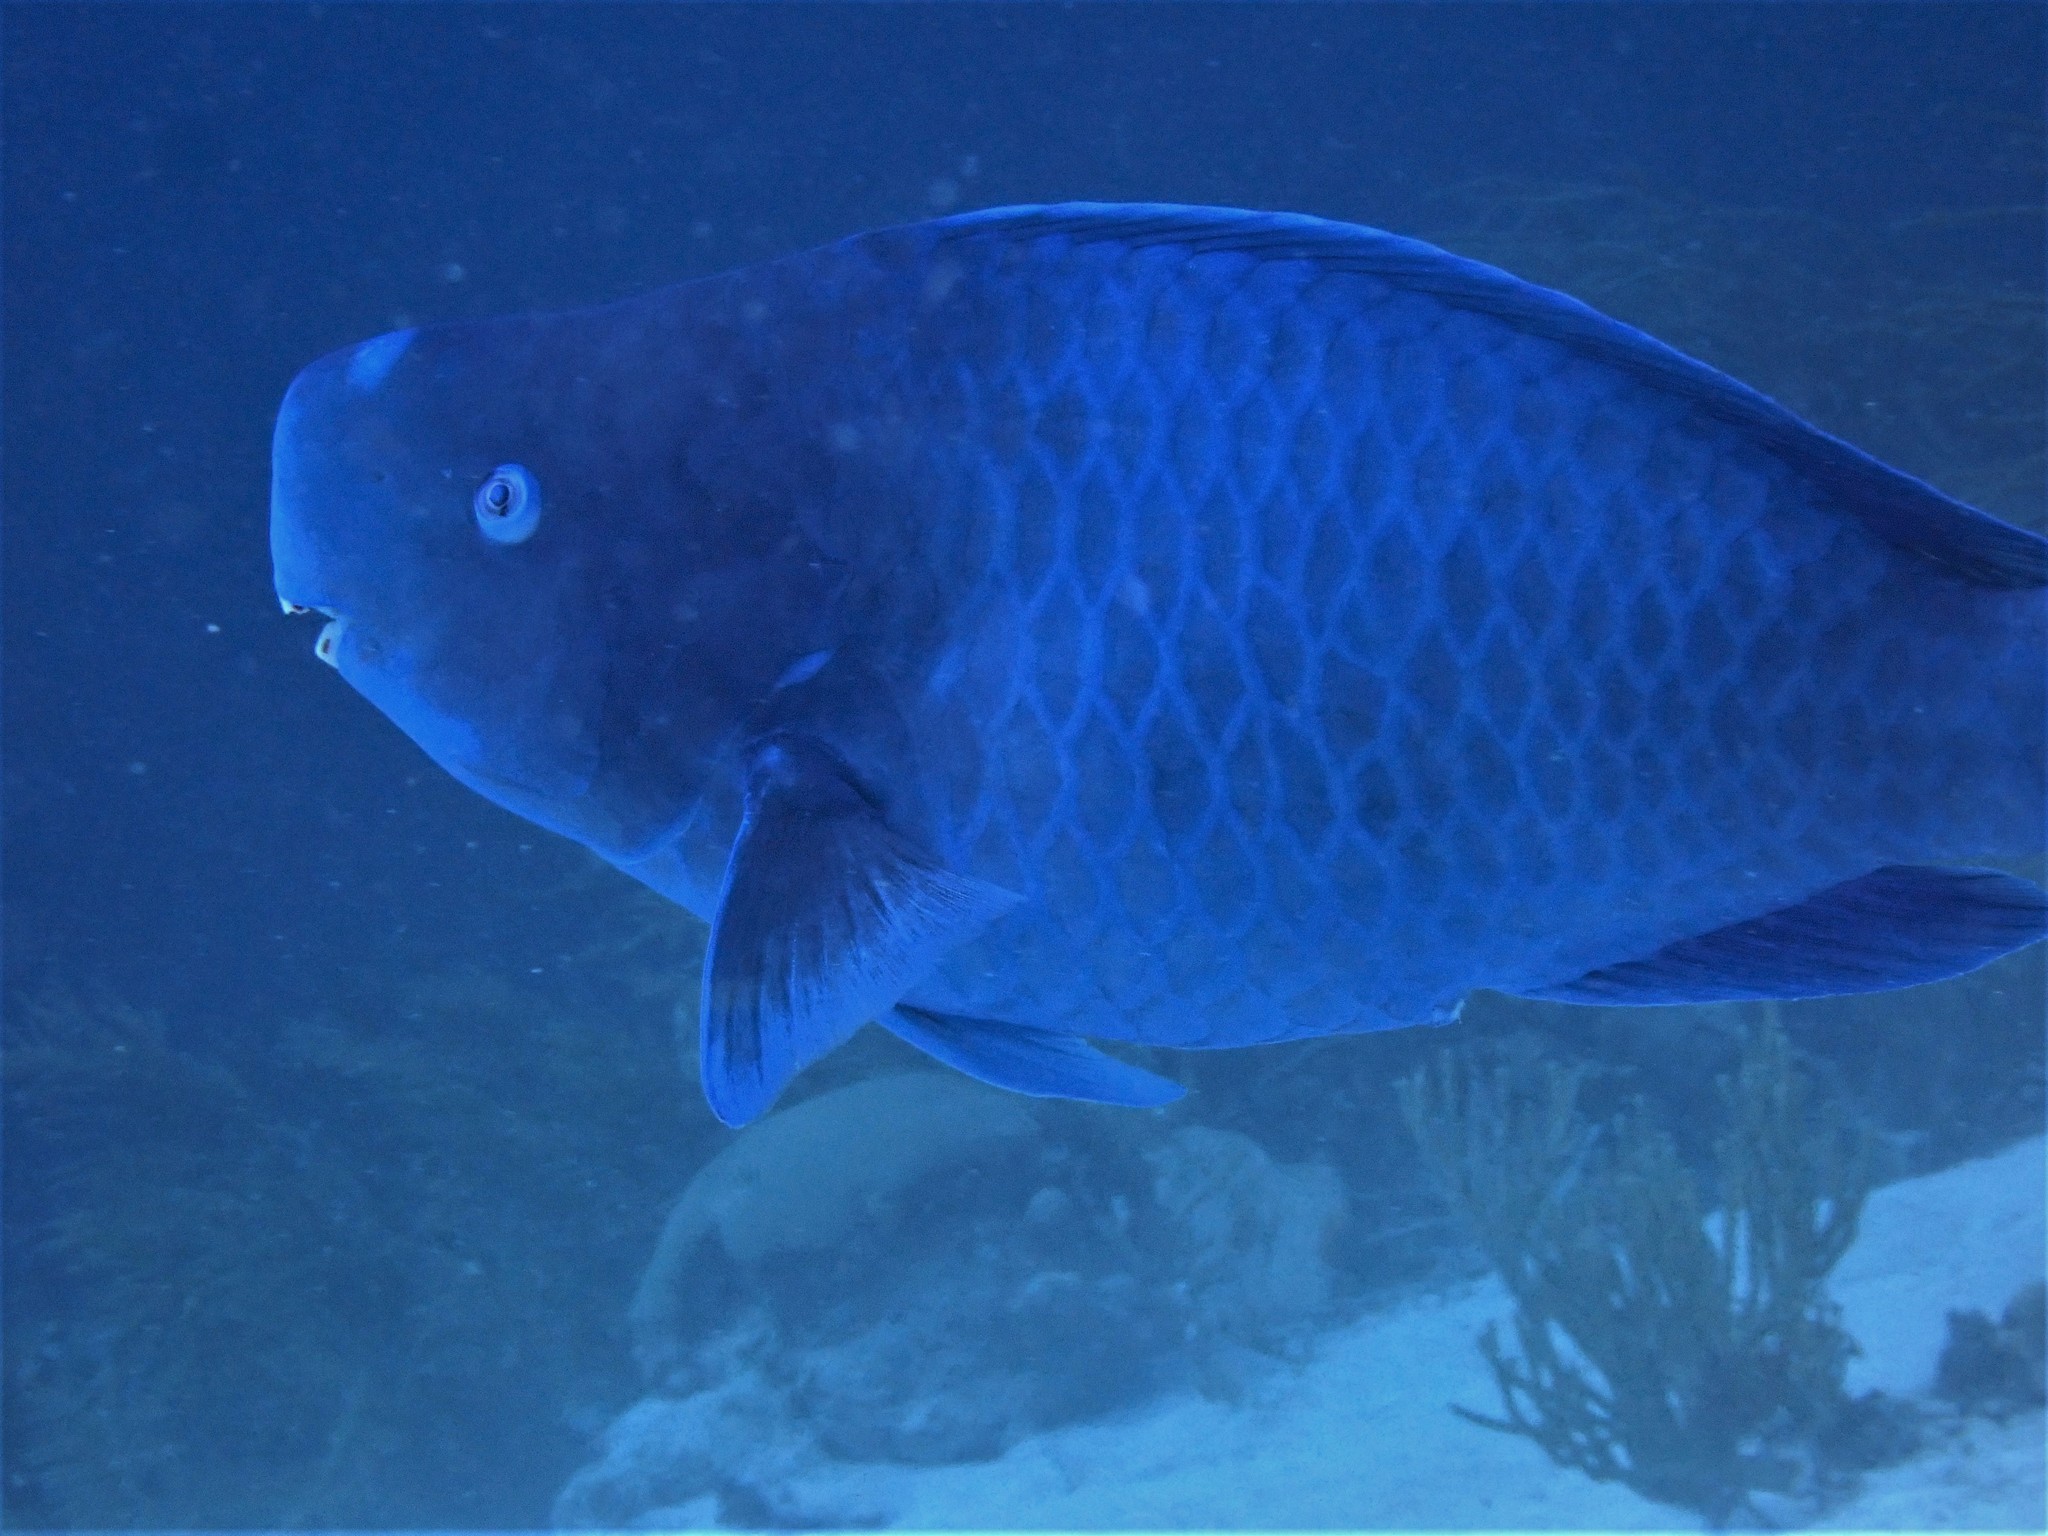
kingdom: Animalia
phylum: Chordata
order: Perciformes
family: Scaridae
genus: Scarus
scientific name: Scarus coeruleus
